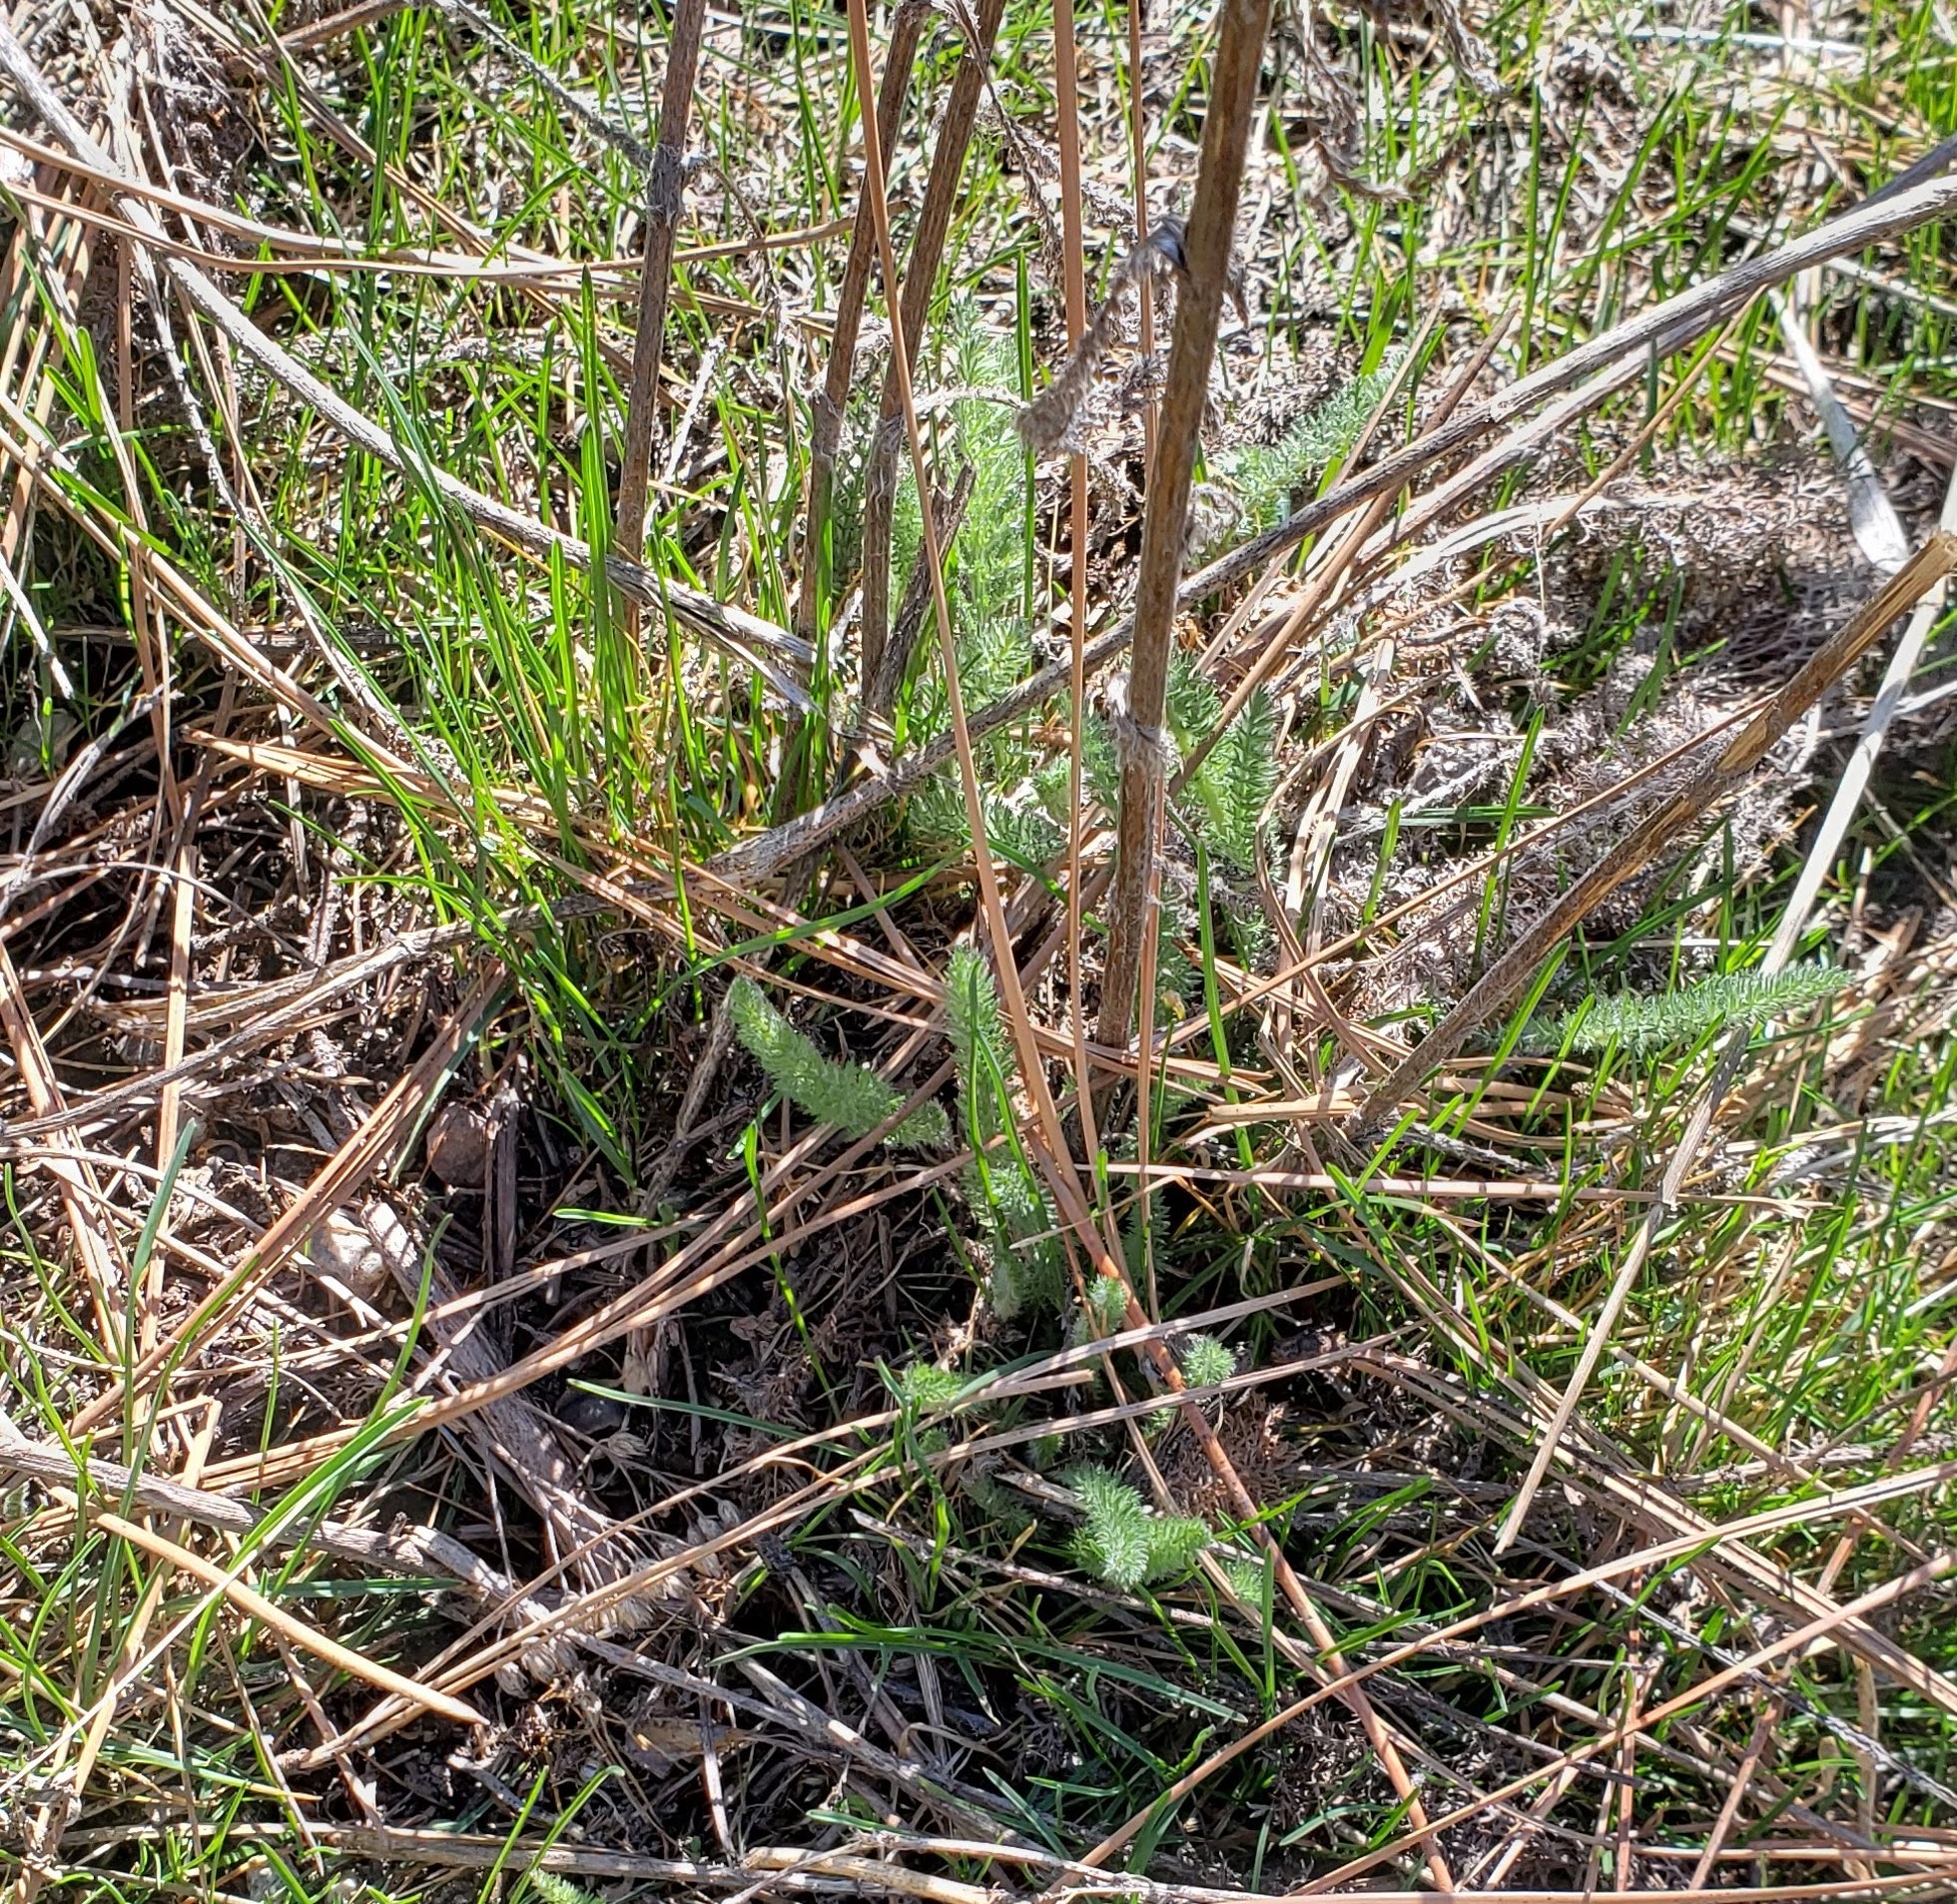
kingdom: Plantae
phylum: Tracheophyta
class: Magnoliopsida
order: Asterales
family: Asteraceae
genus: Achillea
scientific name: Achillea millefolium
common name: Yarrow
